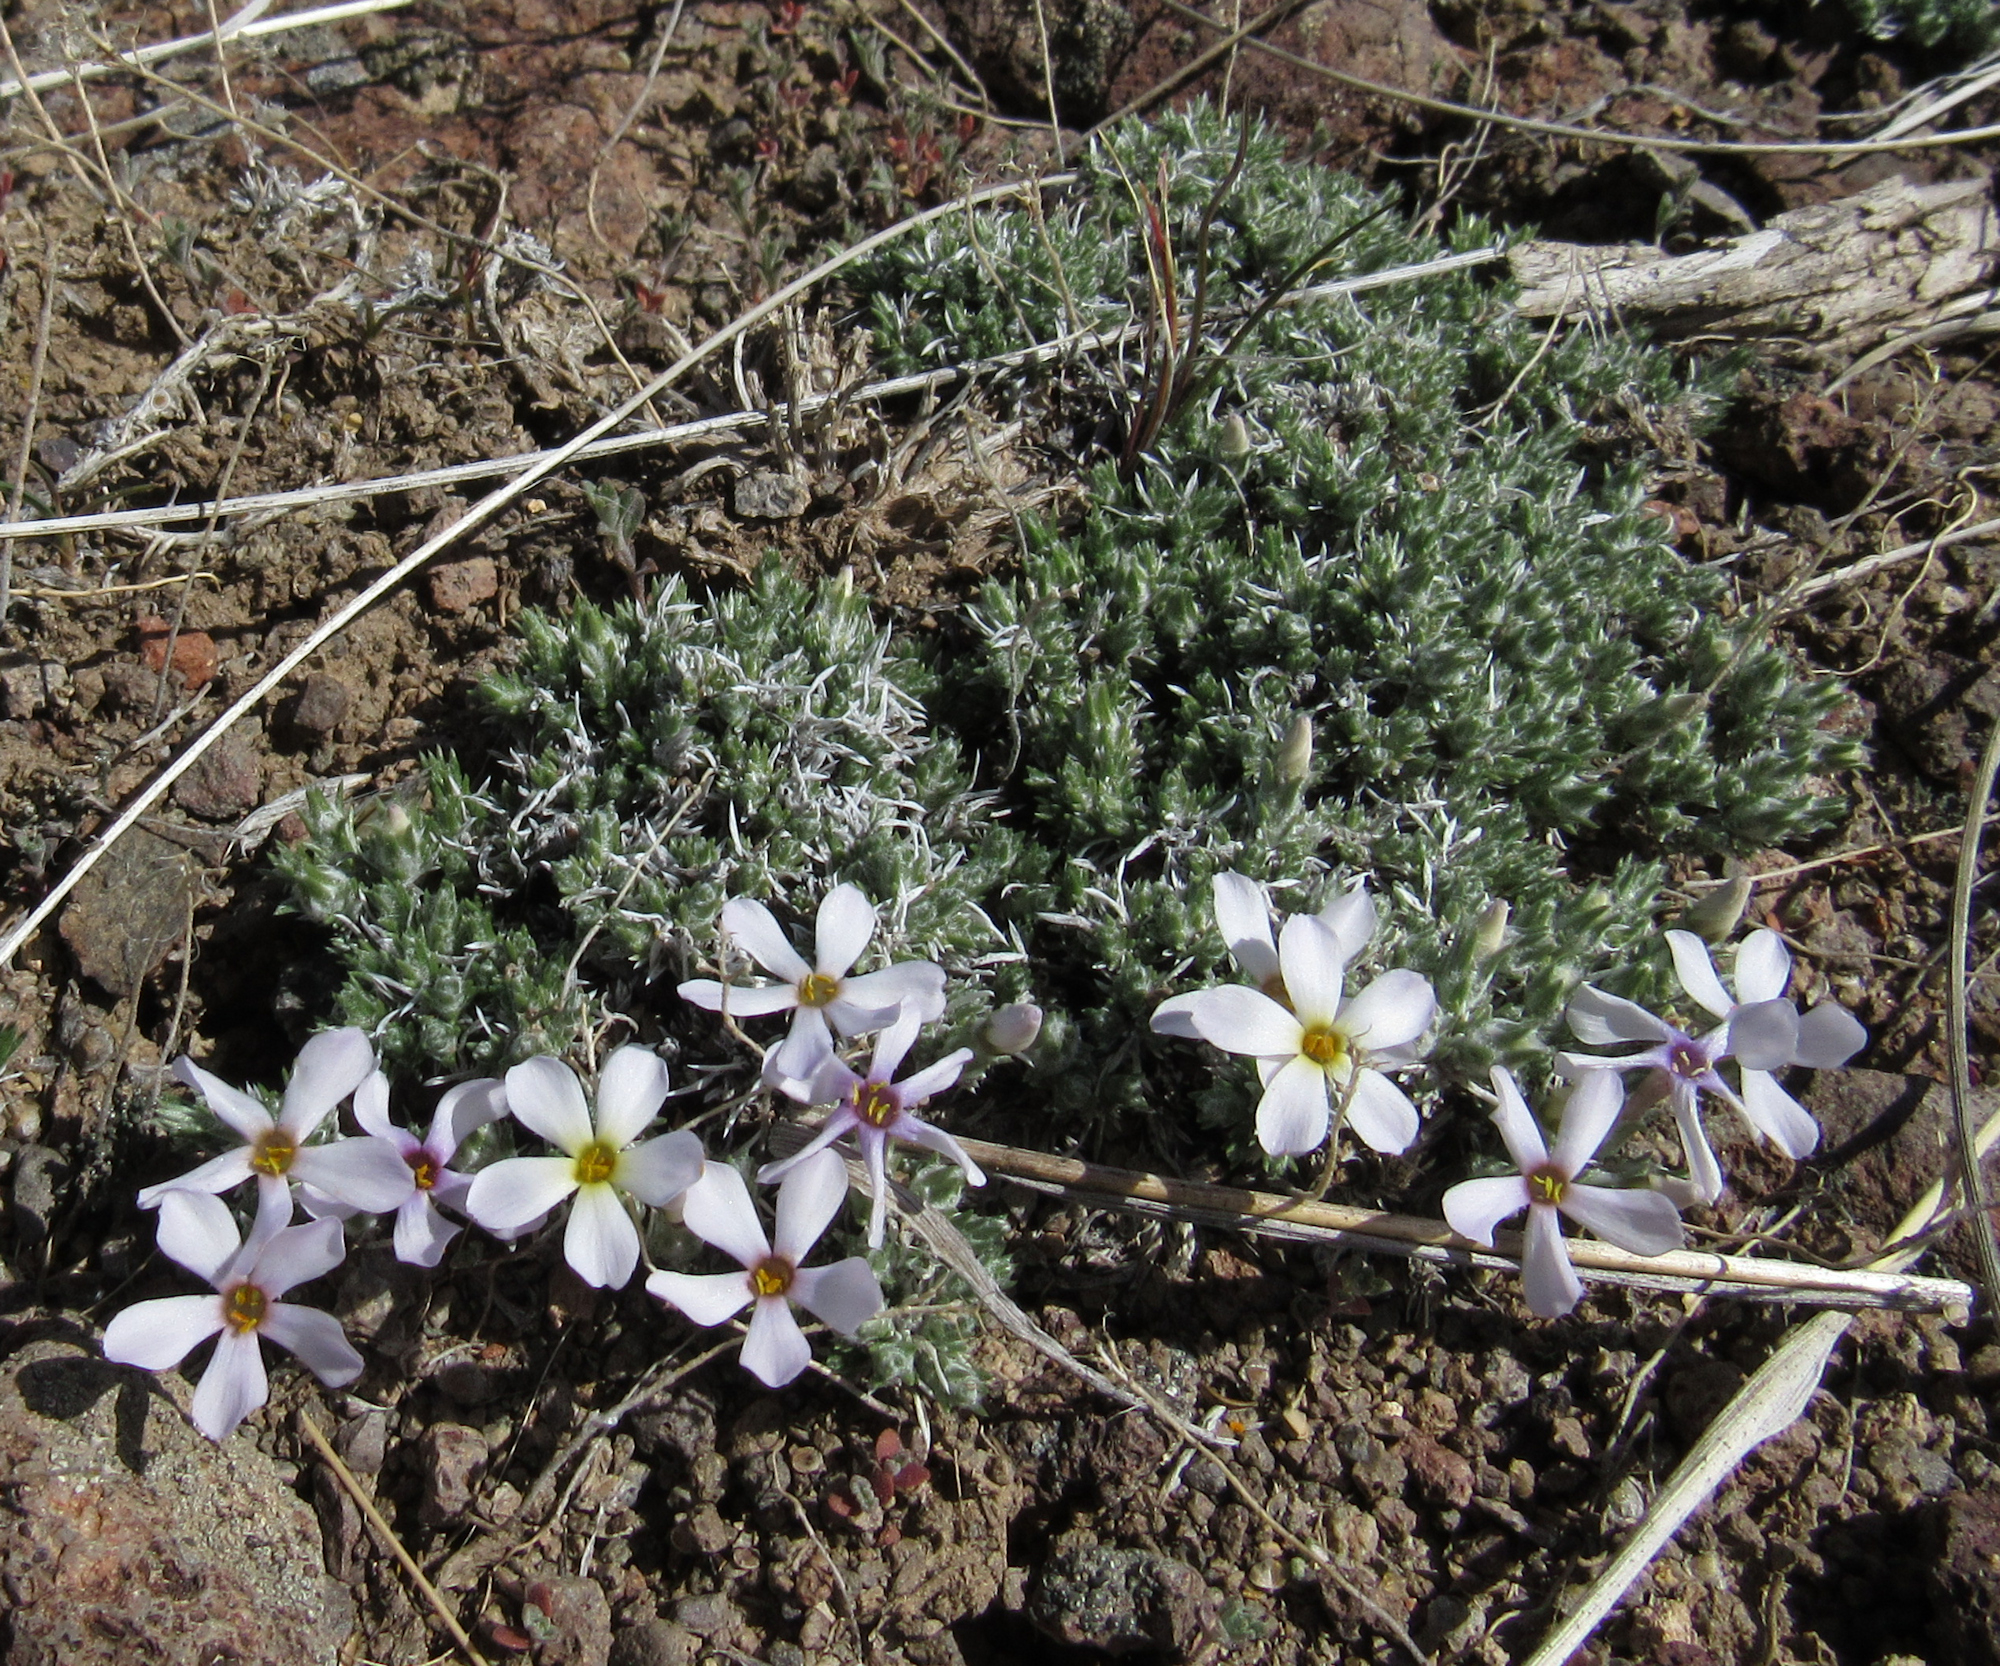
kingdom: Plantae
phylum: Tracheophyta
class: Magnoliopsida
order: Ericales
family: Polemoniaceae
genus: Phlox
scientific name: Phlox hoodii
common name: Moss phlox
